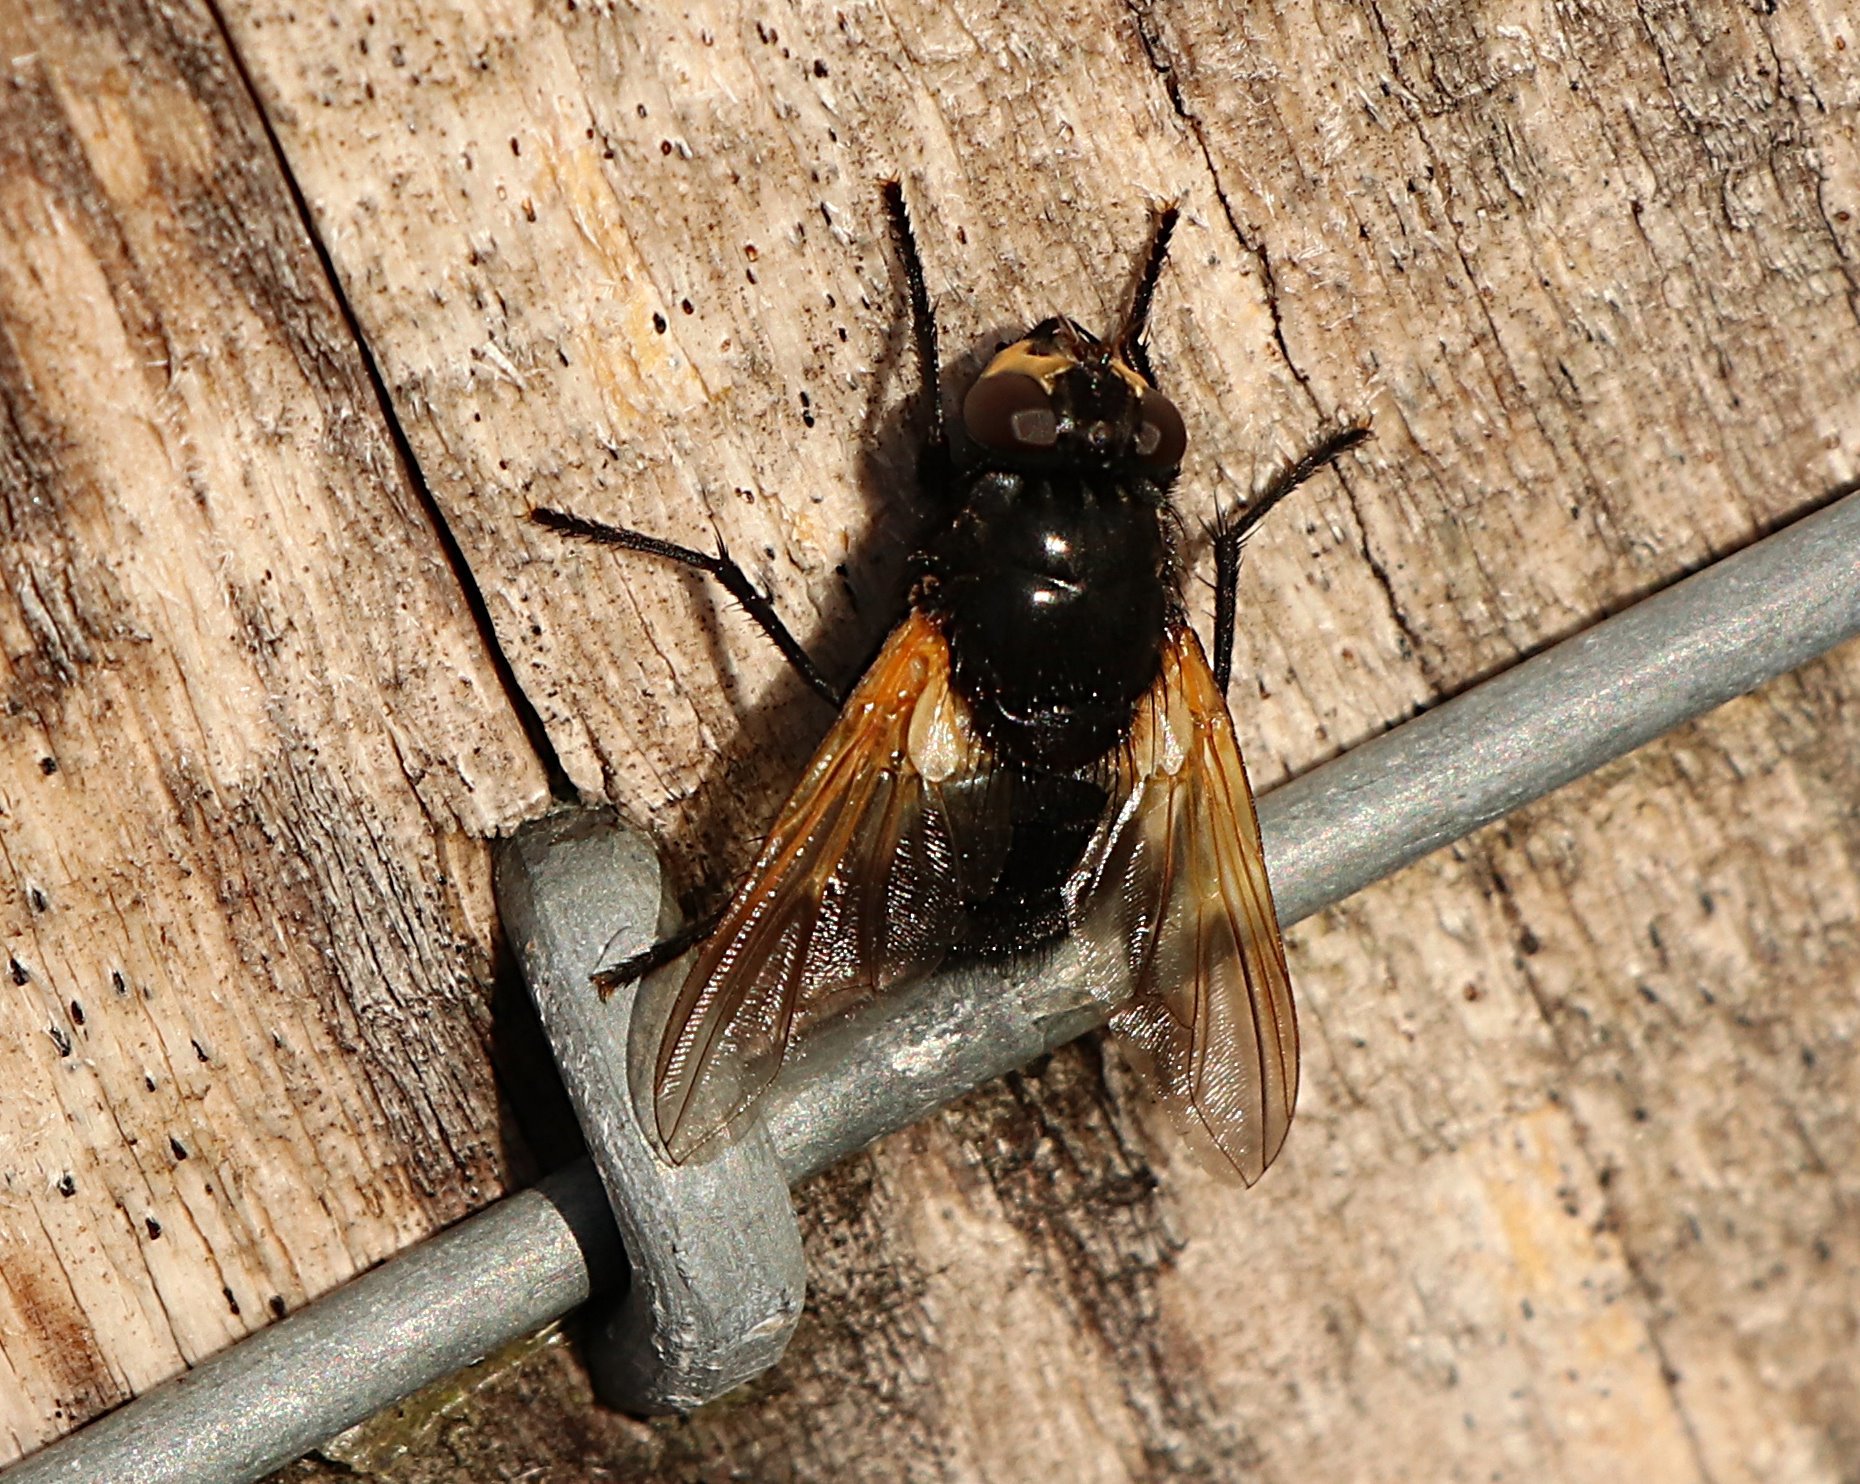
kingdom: Animalia
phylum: Arthropoda
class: Insecta
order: Diptera
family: Muscidae
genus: Mesembrina
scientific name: Mesembrina meridiana
